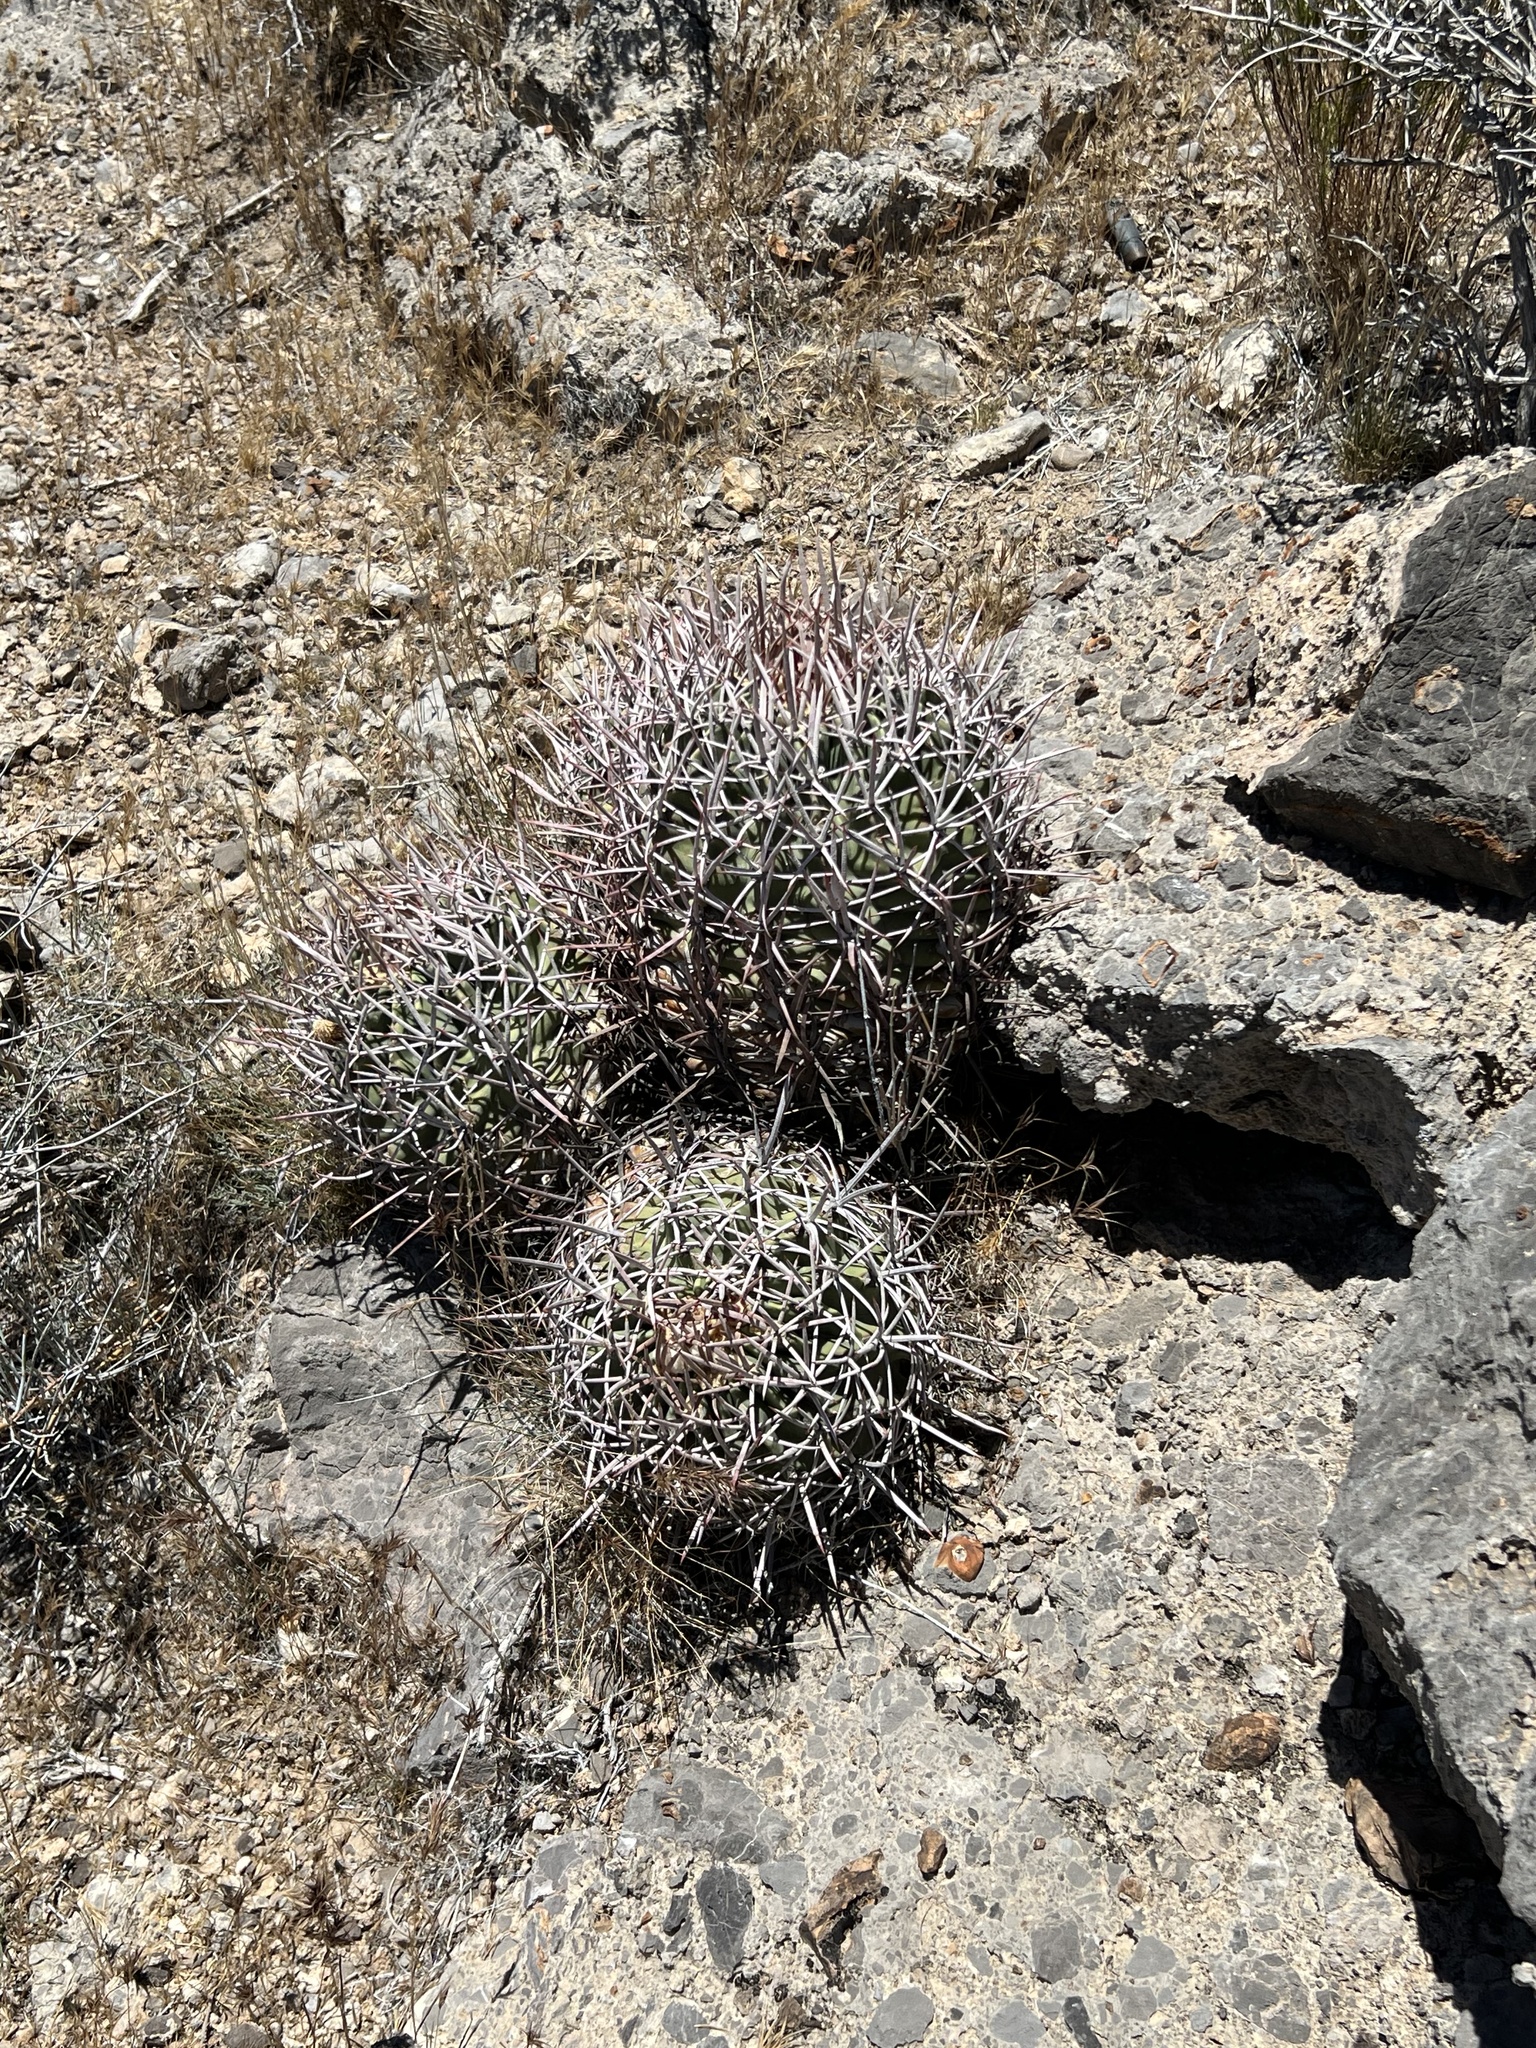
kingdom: Plantae
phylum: Tracheophyta
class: Magnoliopsida
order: Caryophyllales
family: Cactaceae
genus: Echinocactus
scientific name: Echinocactus polycephalus
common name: Cottontop cactus
